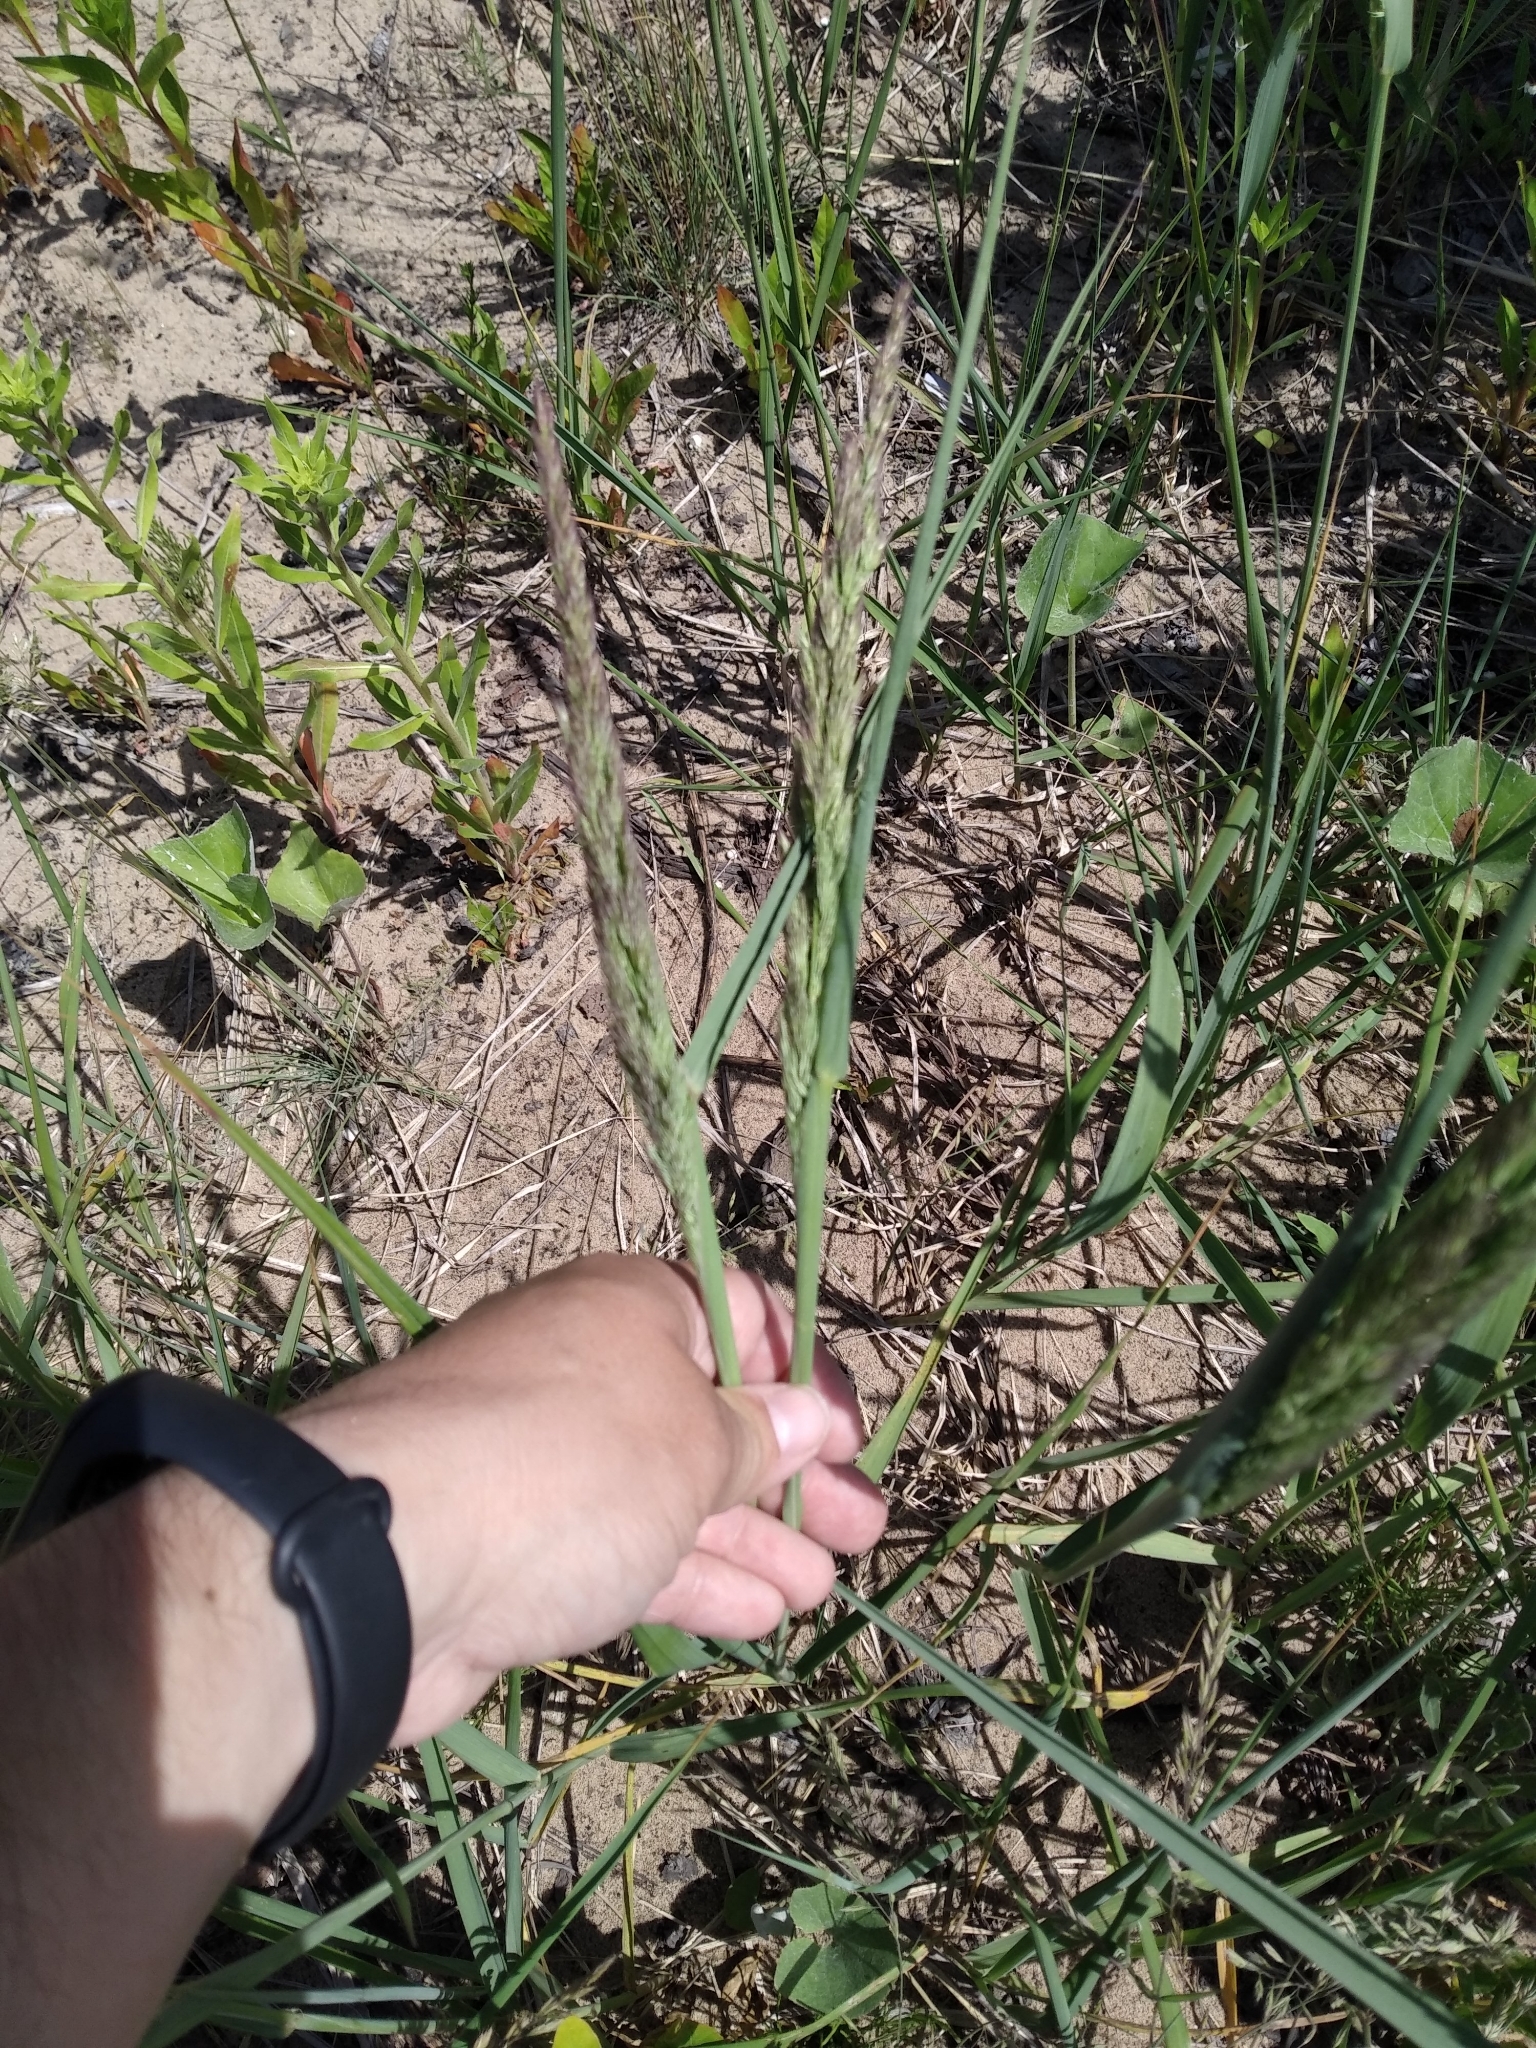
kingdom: Plantae
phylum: Tracheophyta
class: Liliopsida
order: Poales
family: Poaceae
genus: Calamagrostis
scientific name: Calamagrostis epigejos
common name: Wood small-reed
